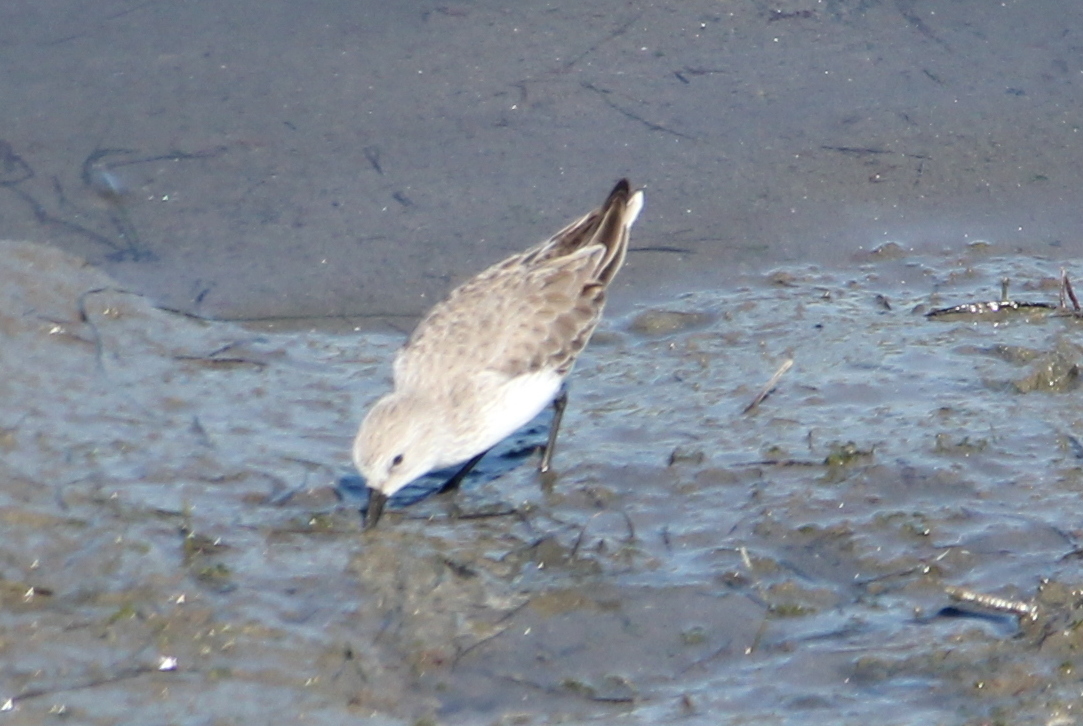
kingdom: Animalia
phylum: Chordata
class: Aves
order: Charadriiformes
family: Scolopacidae
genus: Calidris
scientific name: Calidris mauri
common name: Western sandpiper
